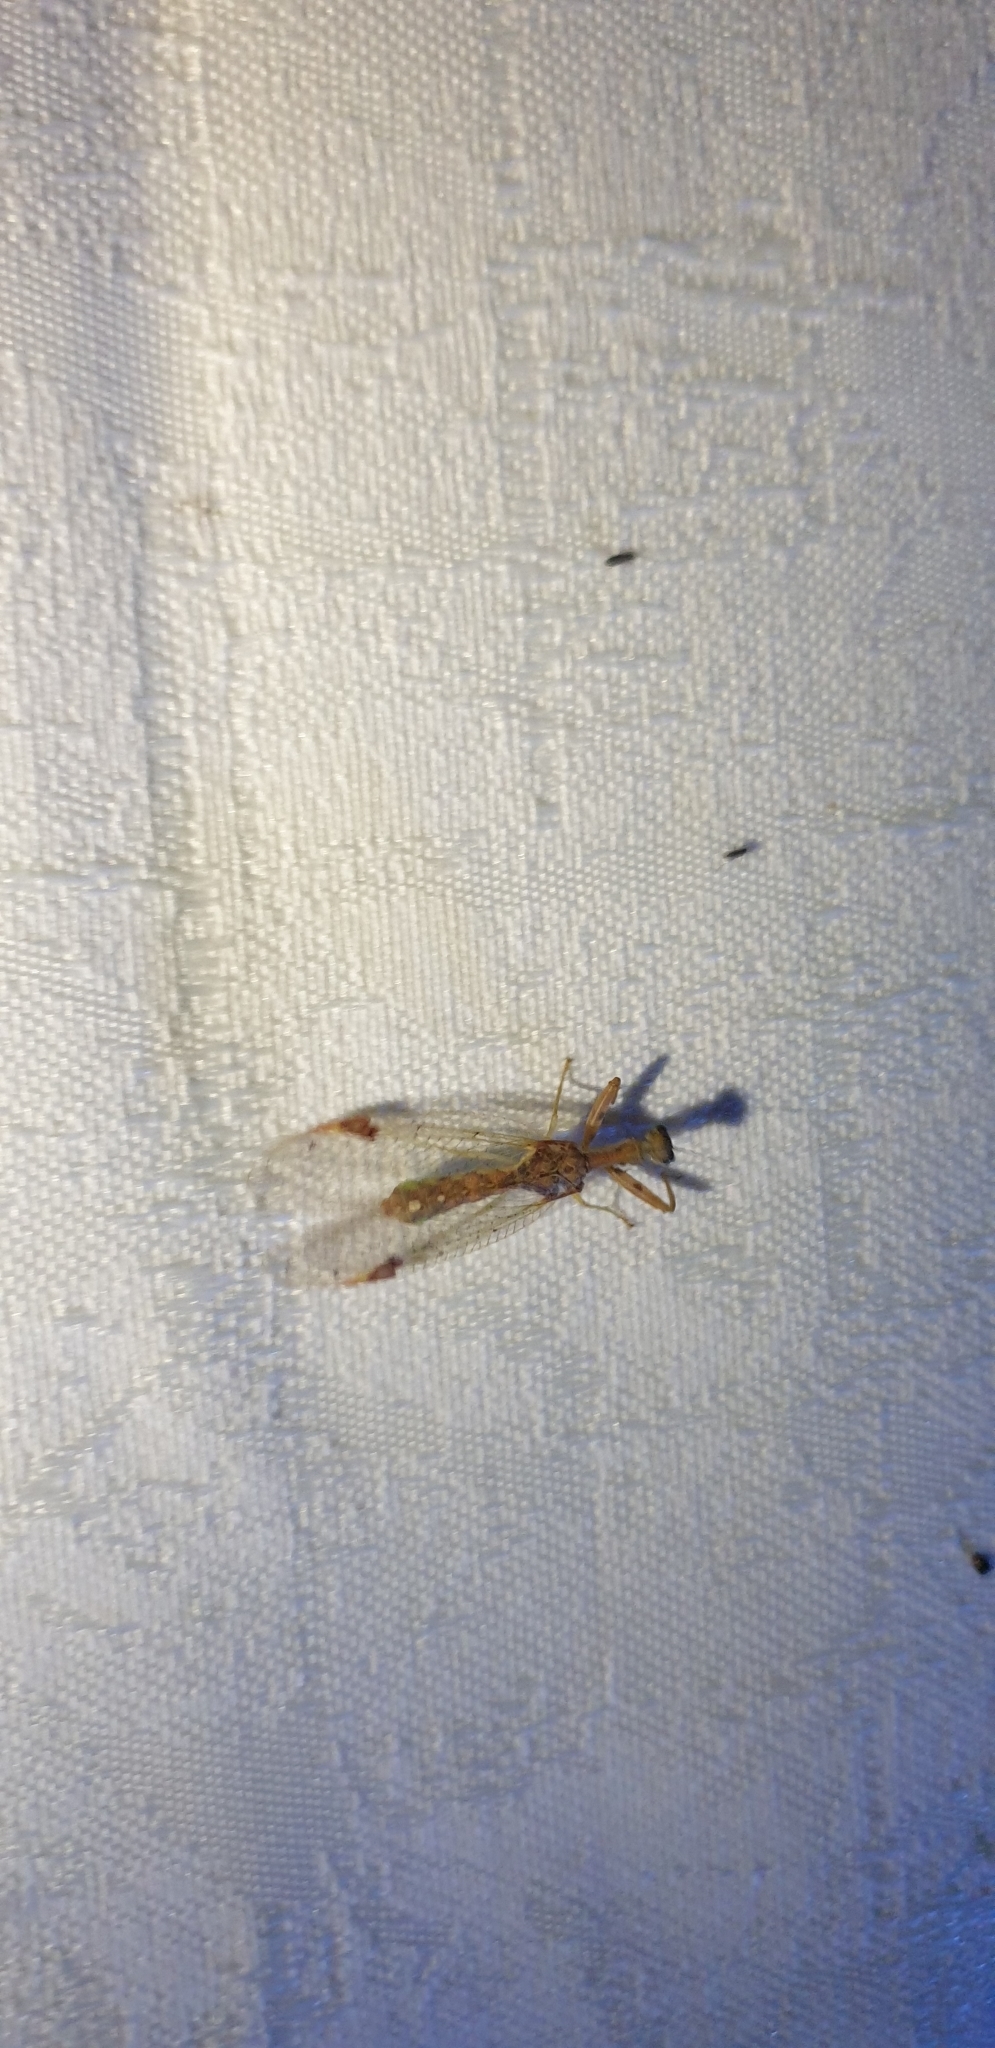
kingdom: Animalia
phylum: Arthropoda
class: Insecta
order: Neuroptera
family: Mantispidae
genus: Ditaxis
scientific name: Ditaxis biseriata
